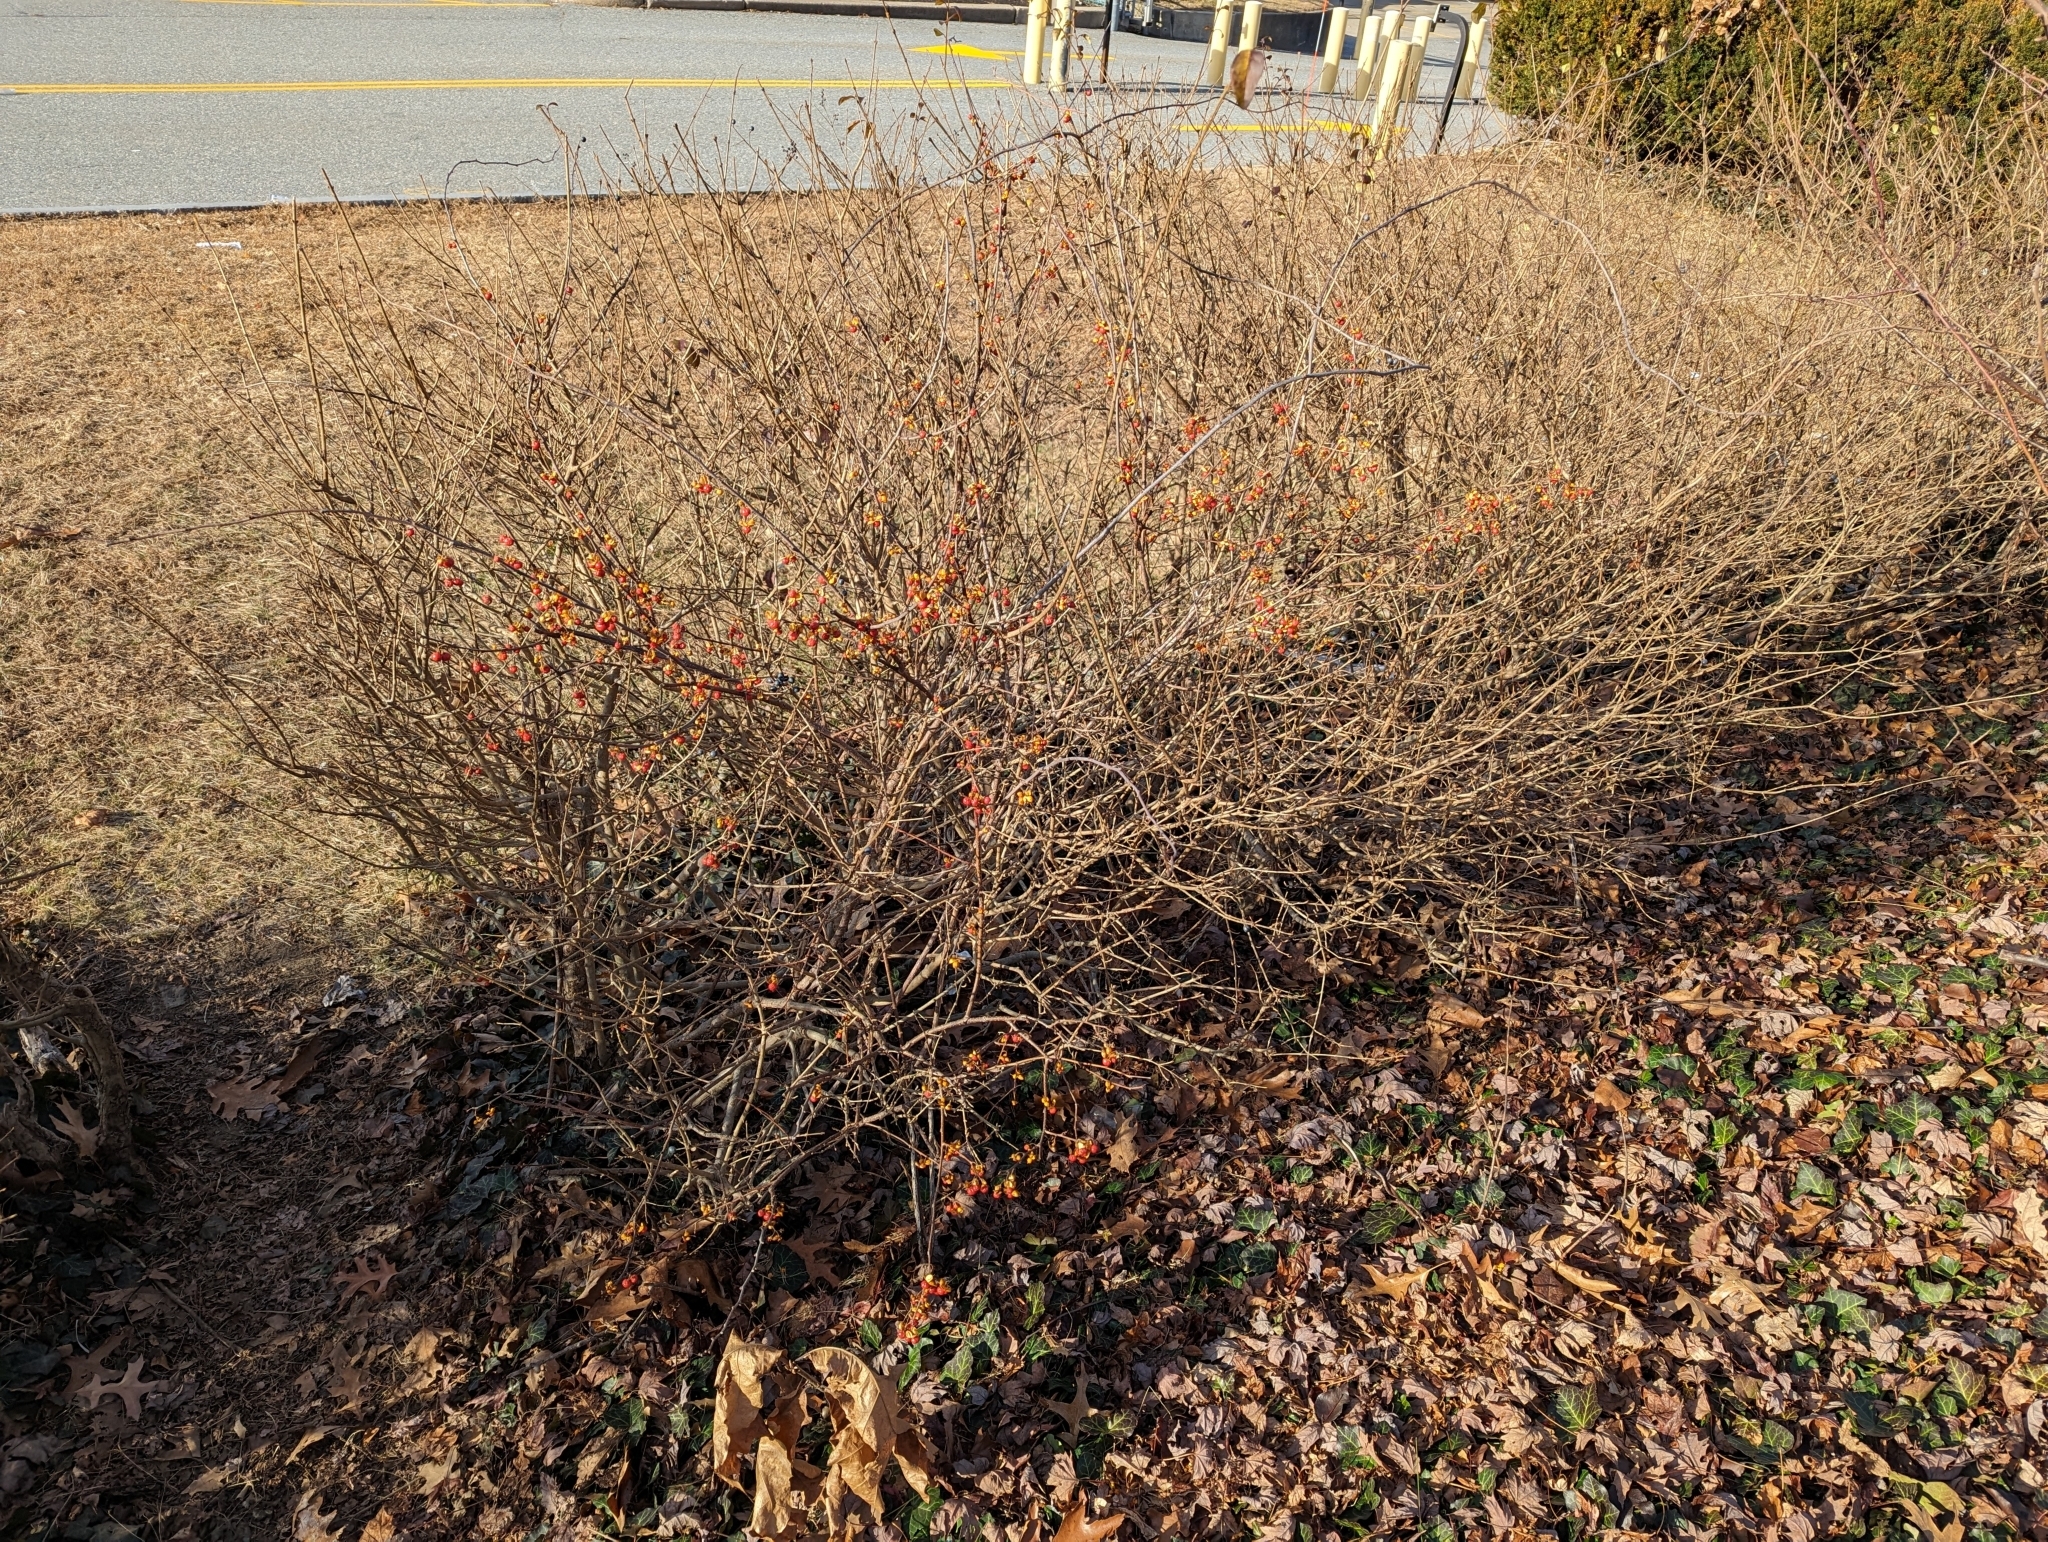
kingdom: Plantae
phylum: Tracheophyta
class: Magnoliopsida
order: Celastrales
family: Celastraceae
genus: Celastrus
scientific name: Celastrus orbiculatus
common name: Oriental bittersweet
